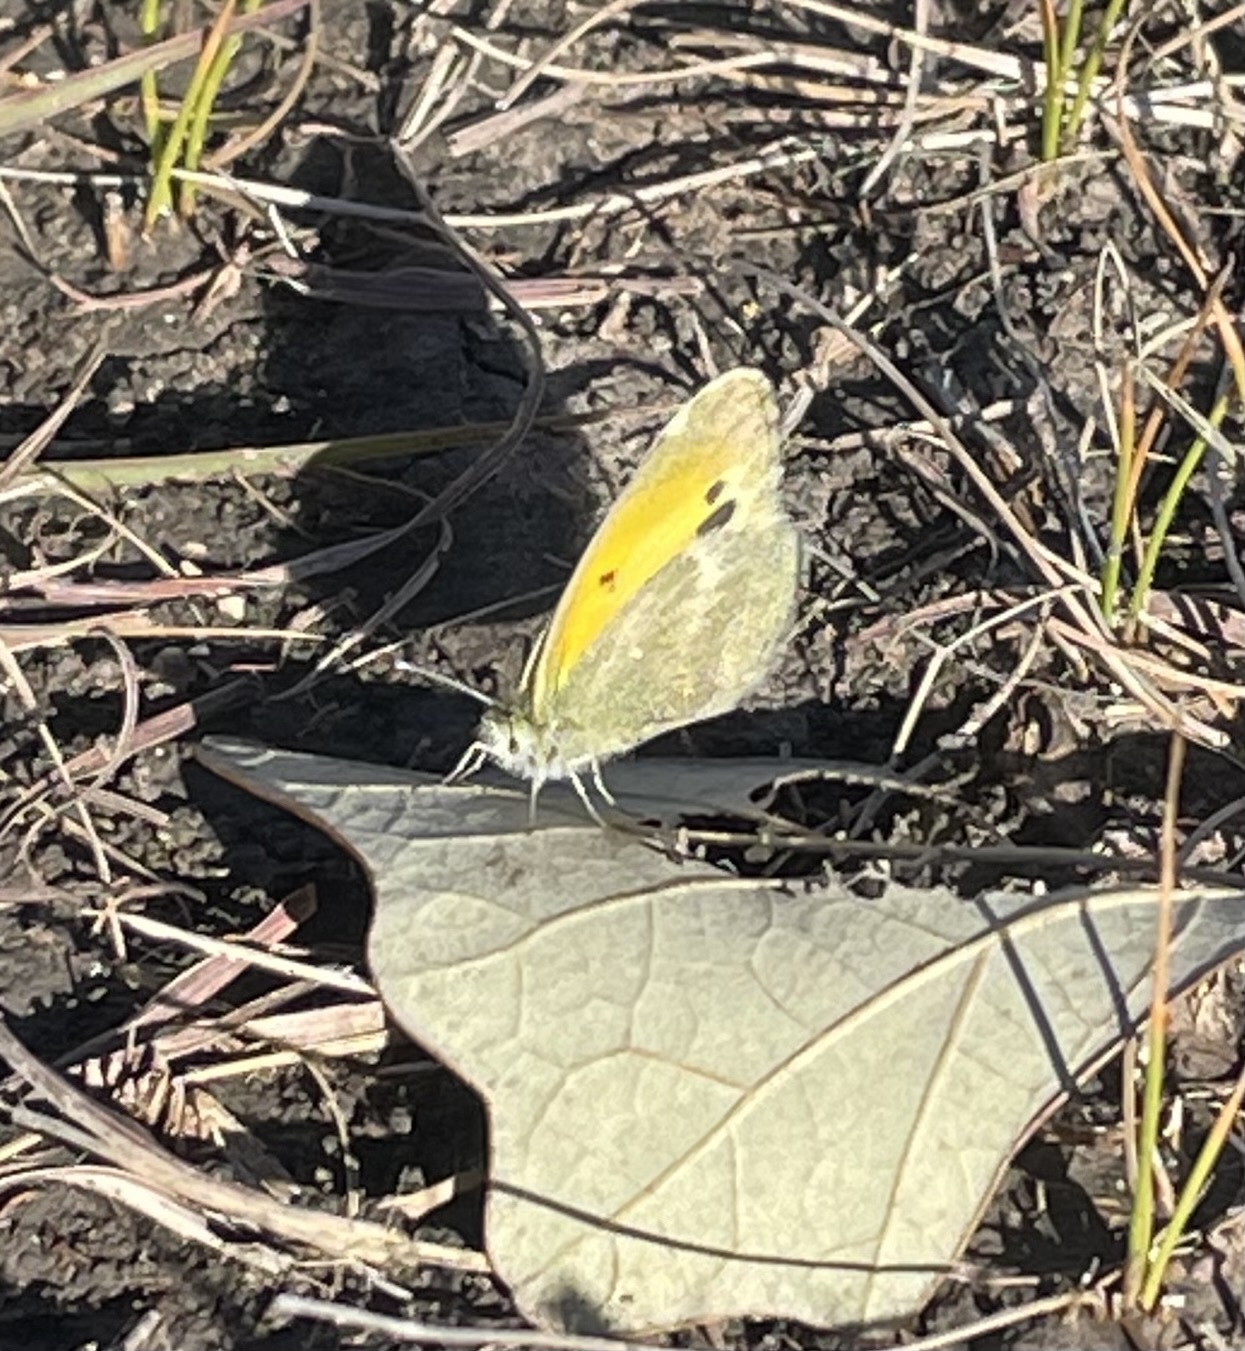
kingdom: Animalia
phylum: Arthropoda
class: Insecta
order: Lepidoptera
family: Pieridae
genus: Nathalis
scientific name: Nathalis iole
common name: Dainty sulphur
